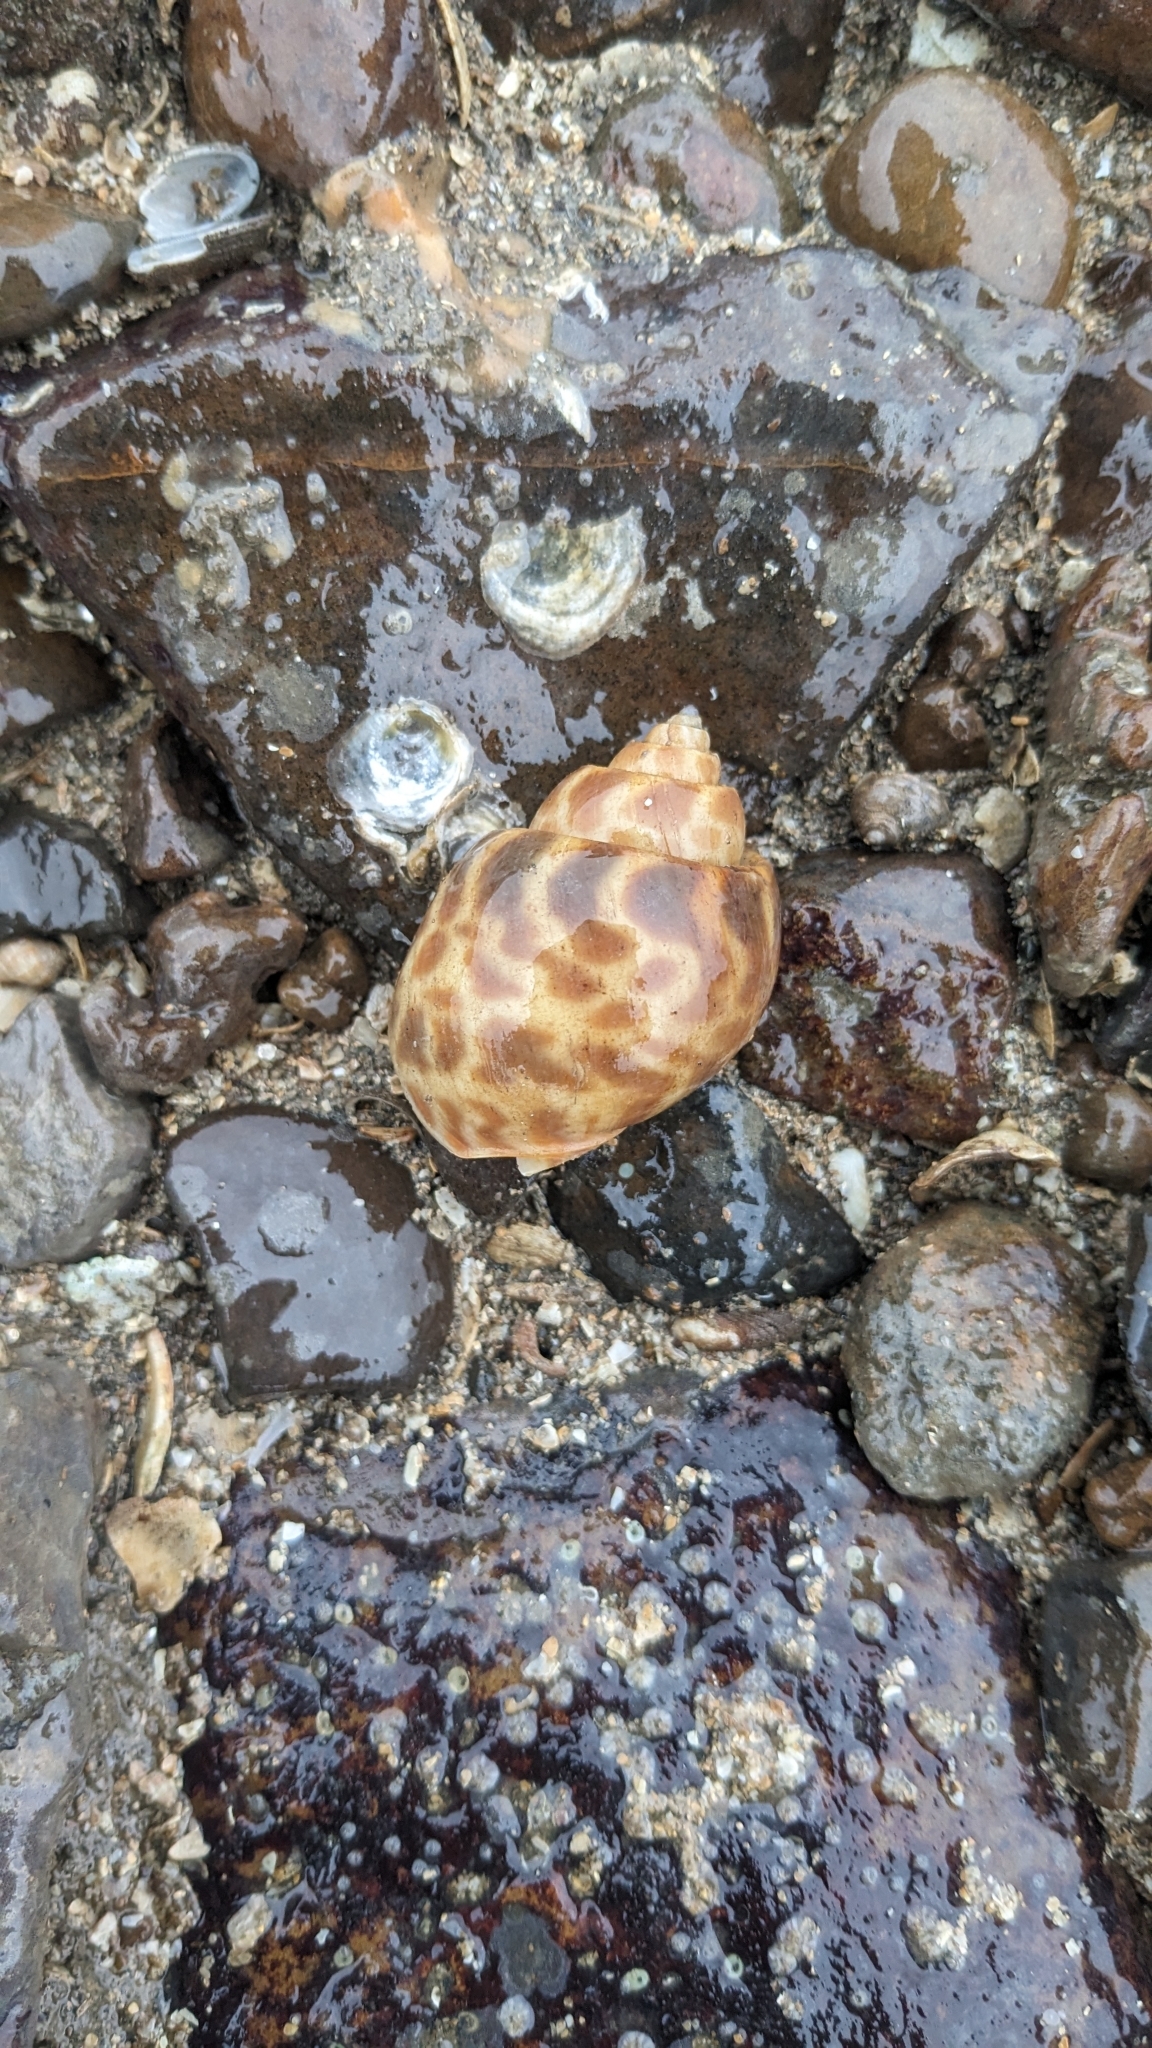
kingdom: Animalia
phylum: Mollusca
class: Gastropoda
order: Neogastropoda
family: Babyloniidae
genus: Babylonia
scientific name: Babylonia spirata
